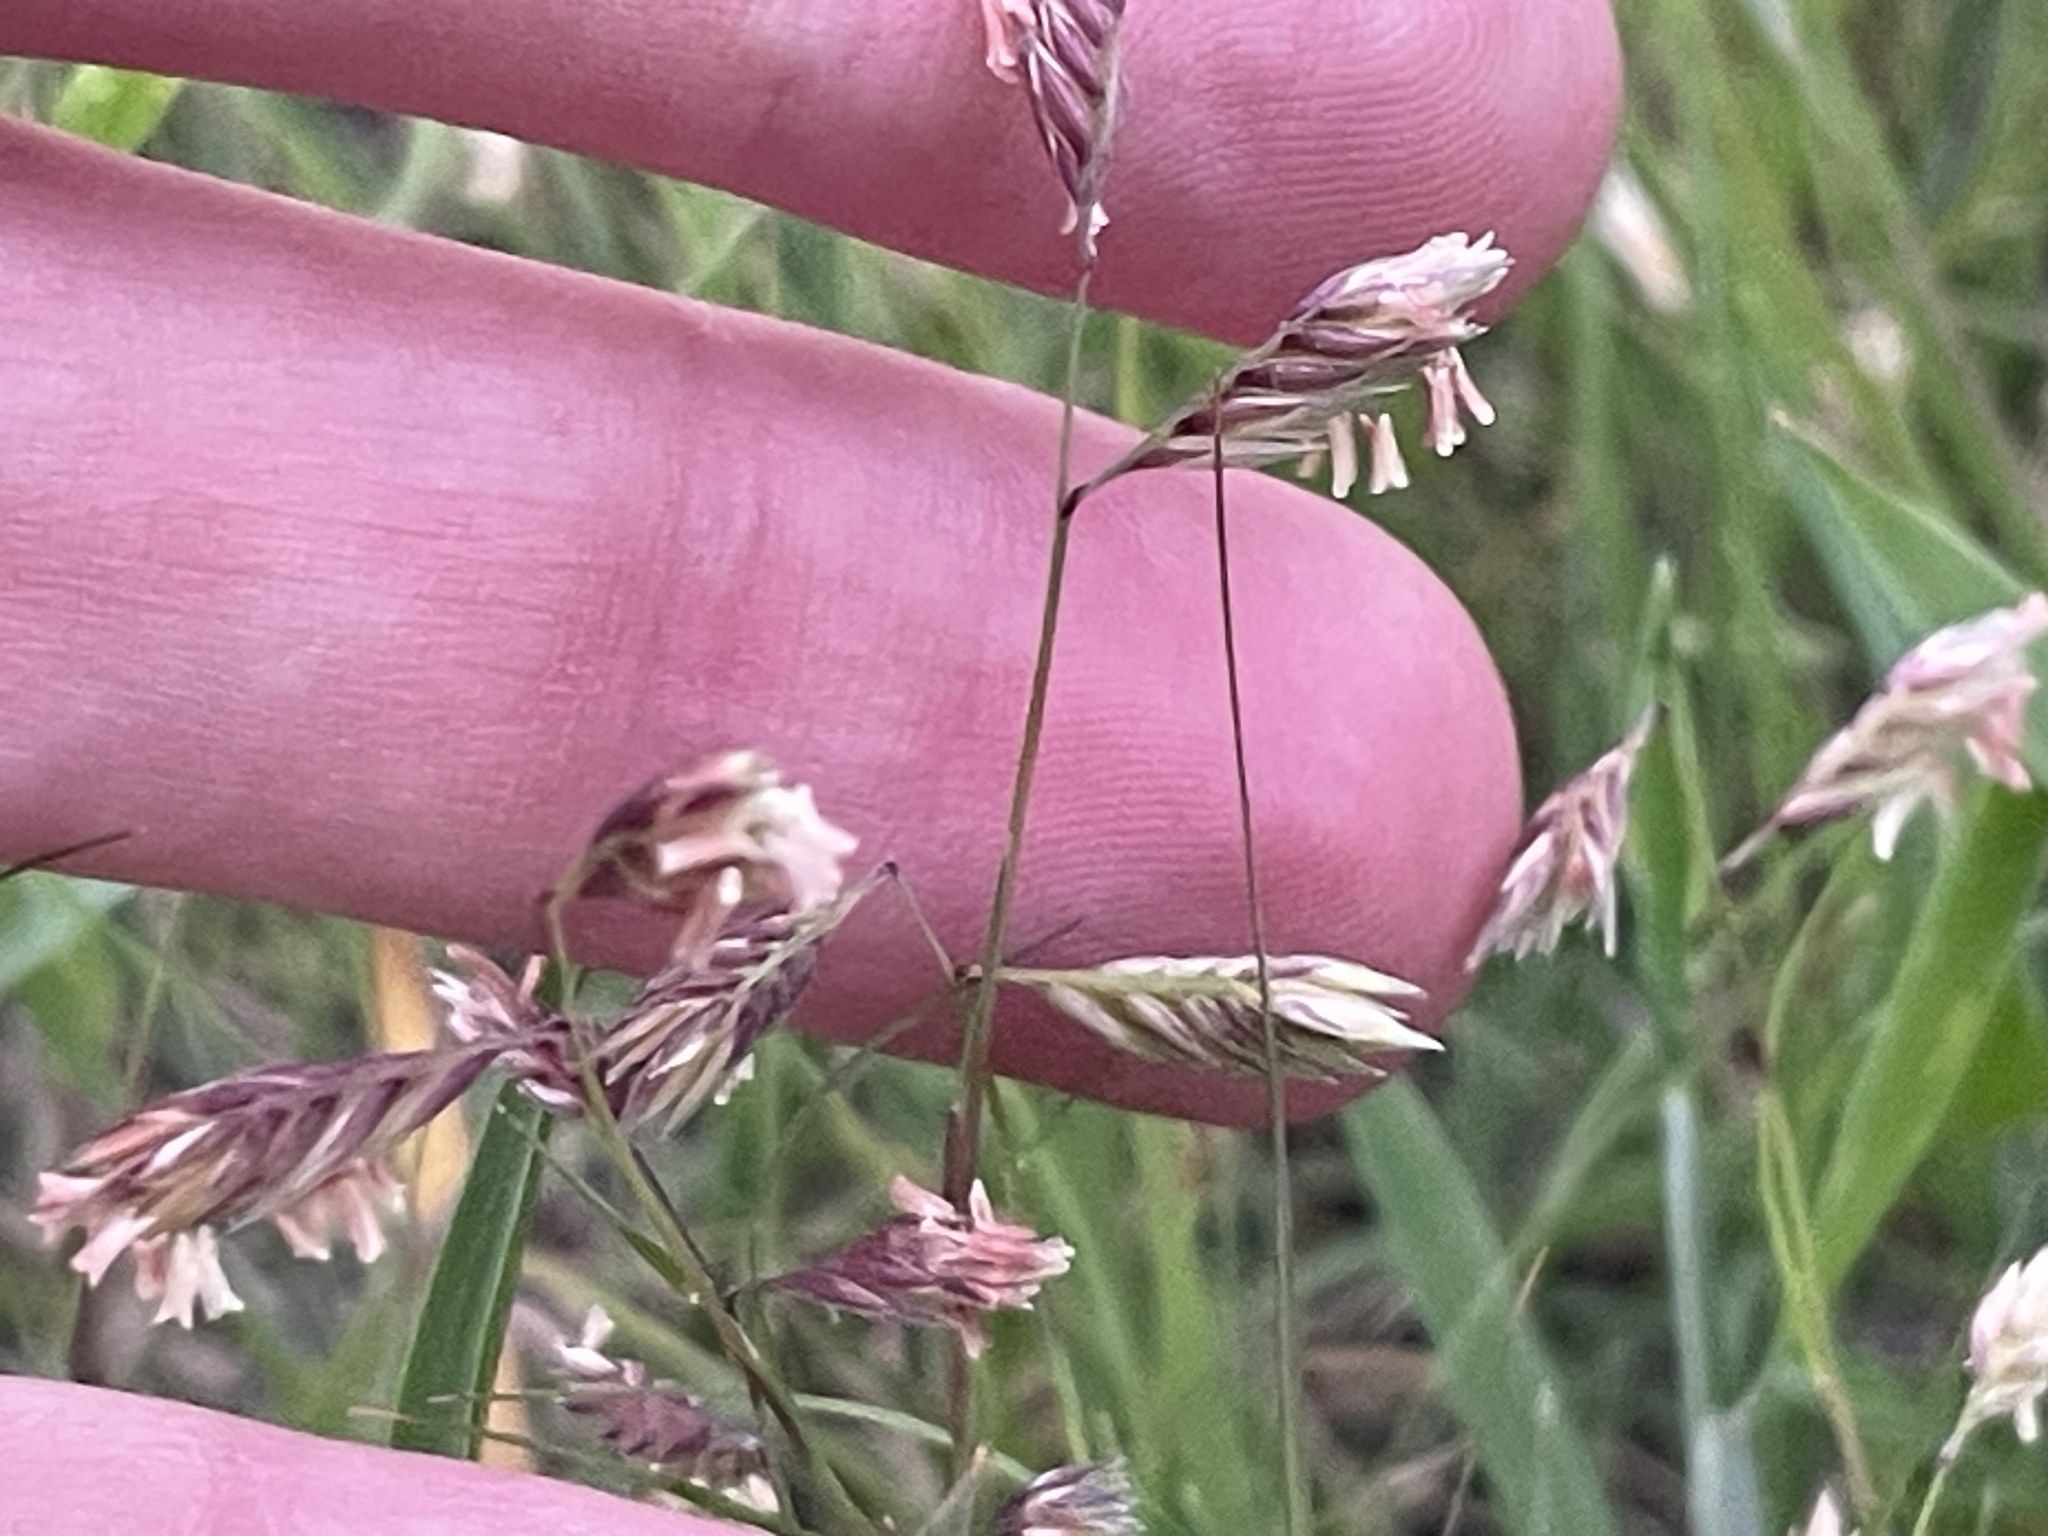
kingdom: Plantae
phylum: Tracheophyta
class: Liliopsida
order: Poales
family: Poaceae
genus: Bouteloua
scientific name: Bouteloua dactyloides
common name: Buffalo grass
